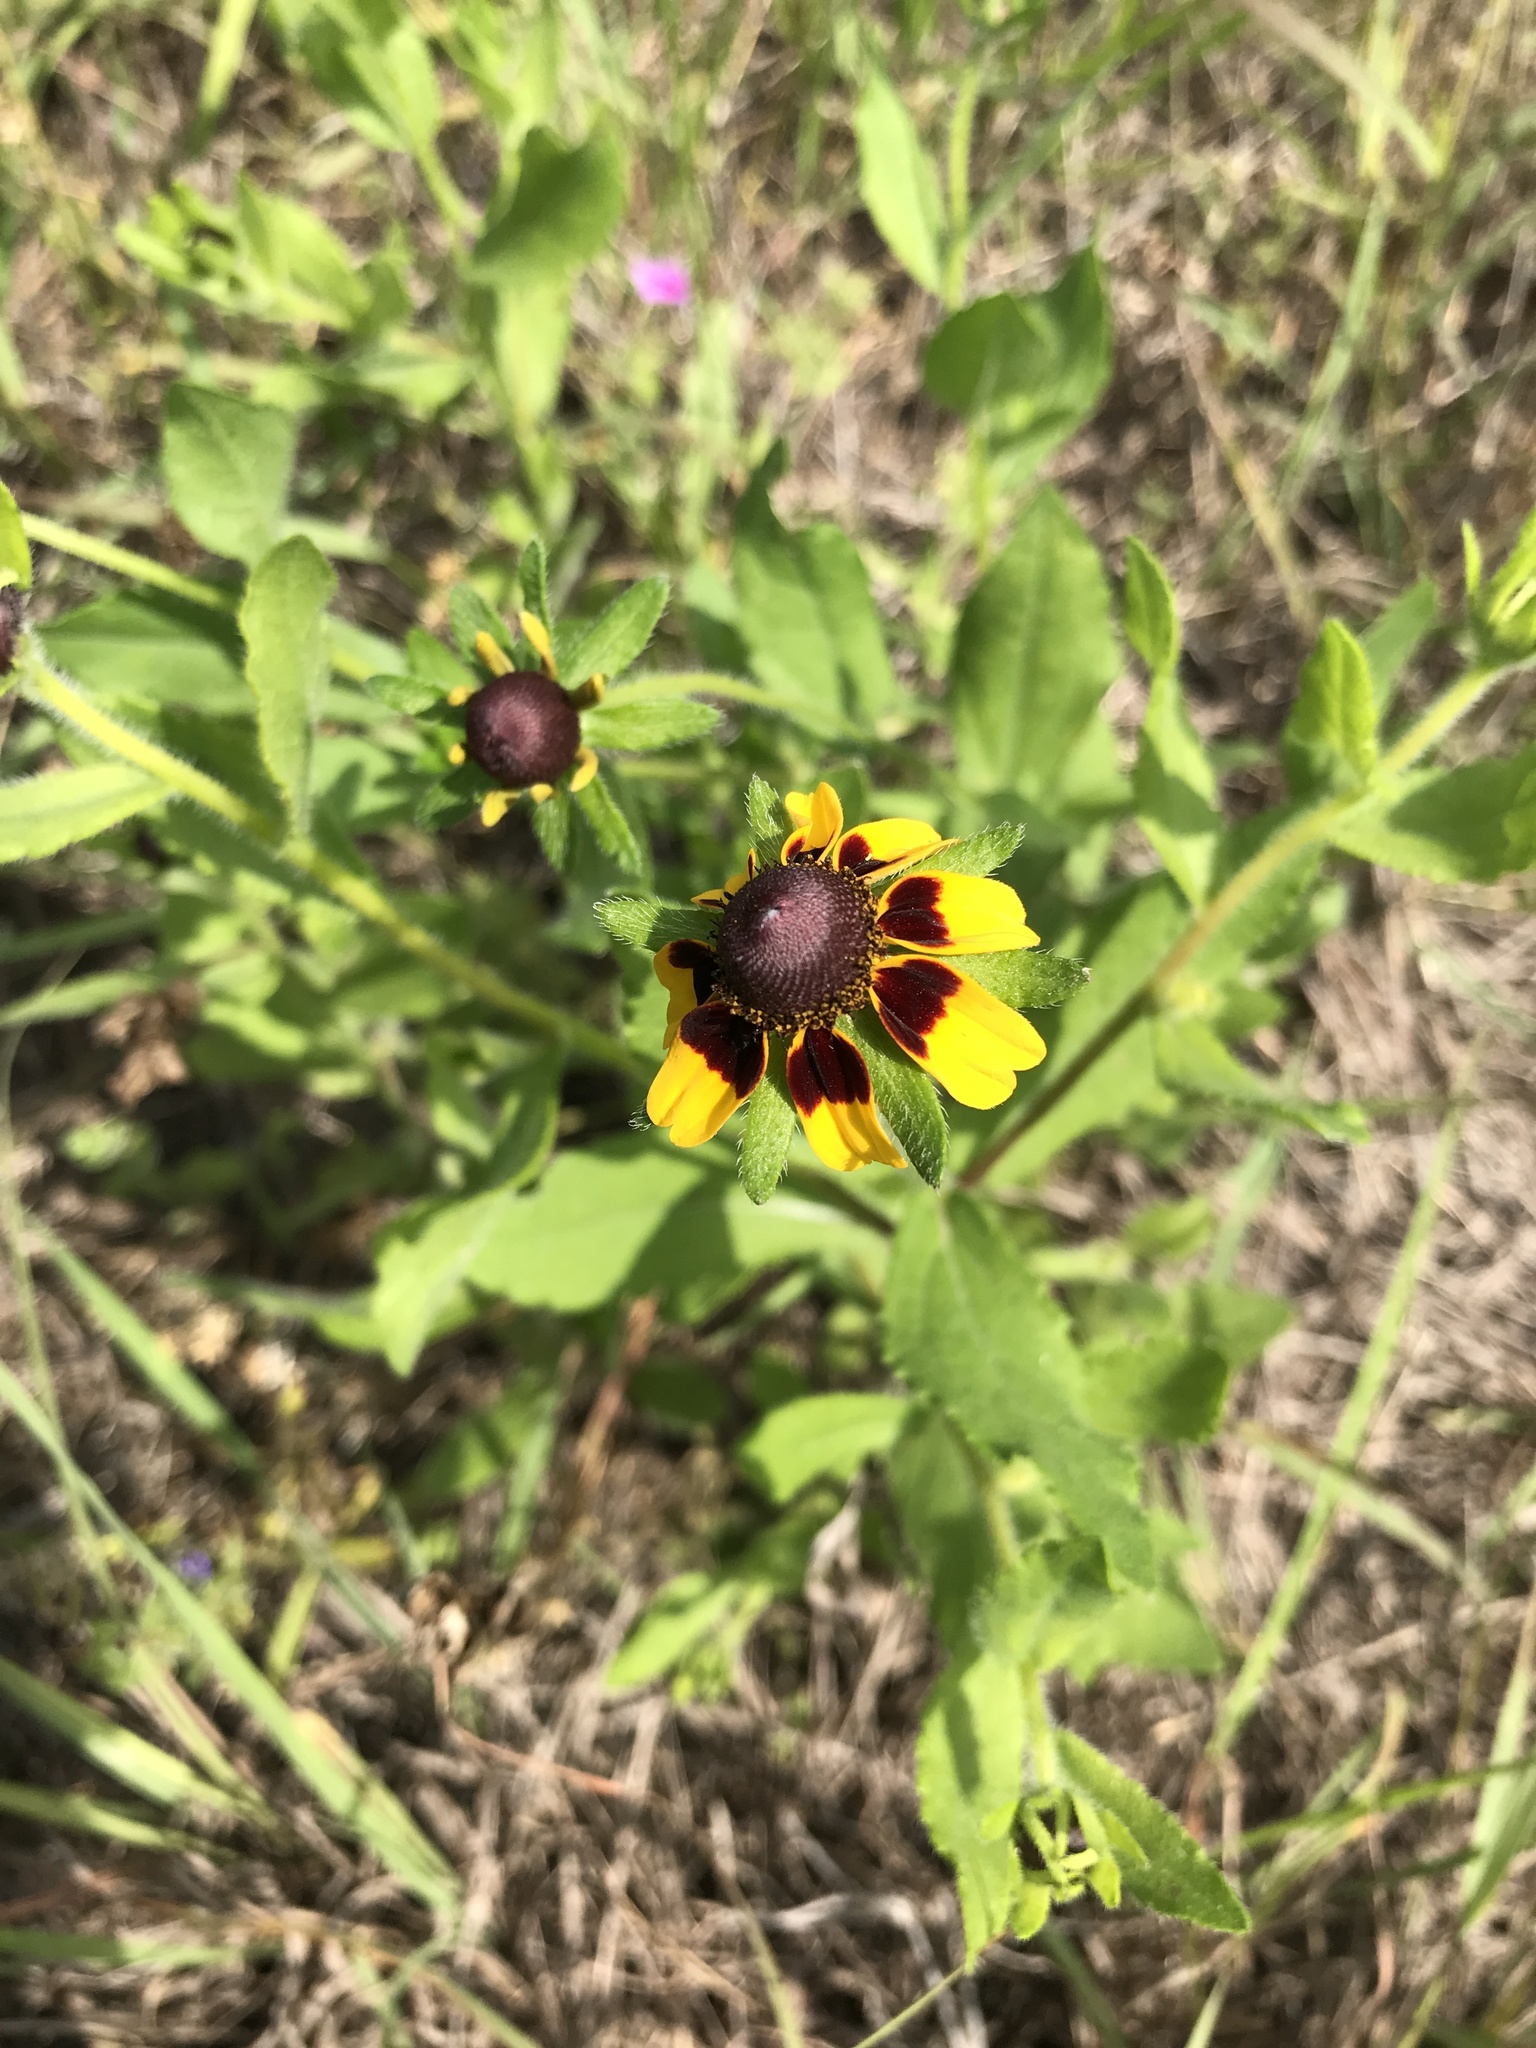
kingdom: Plantae
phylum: Tracheophyta
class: Magnoliopsida
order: Asterales
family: Asteraceae
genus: Rudbeckia
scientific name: Rudbeckia hirta
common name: Black-eyed-susan
